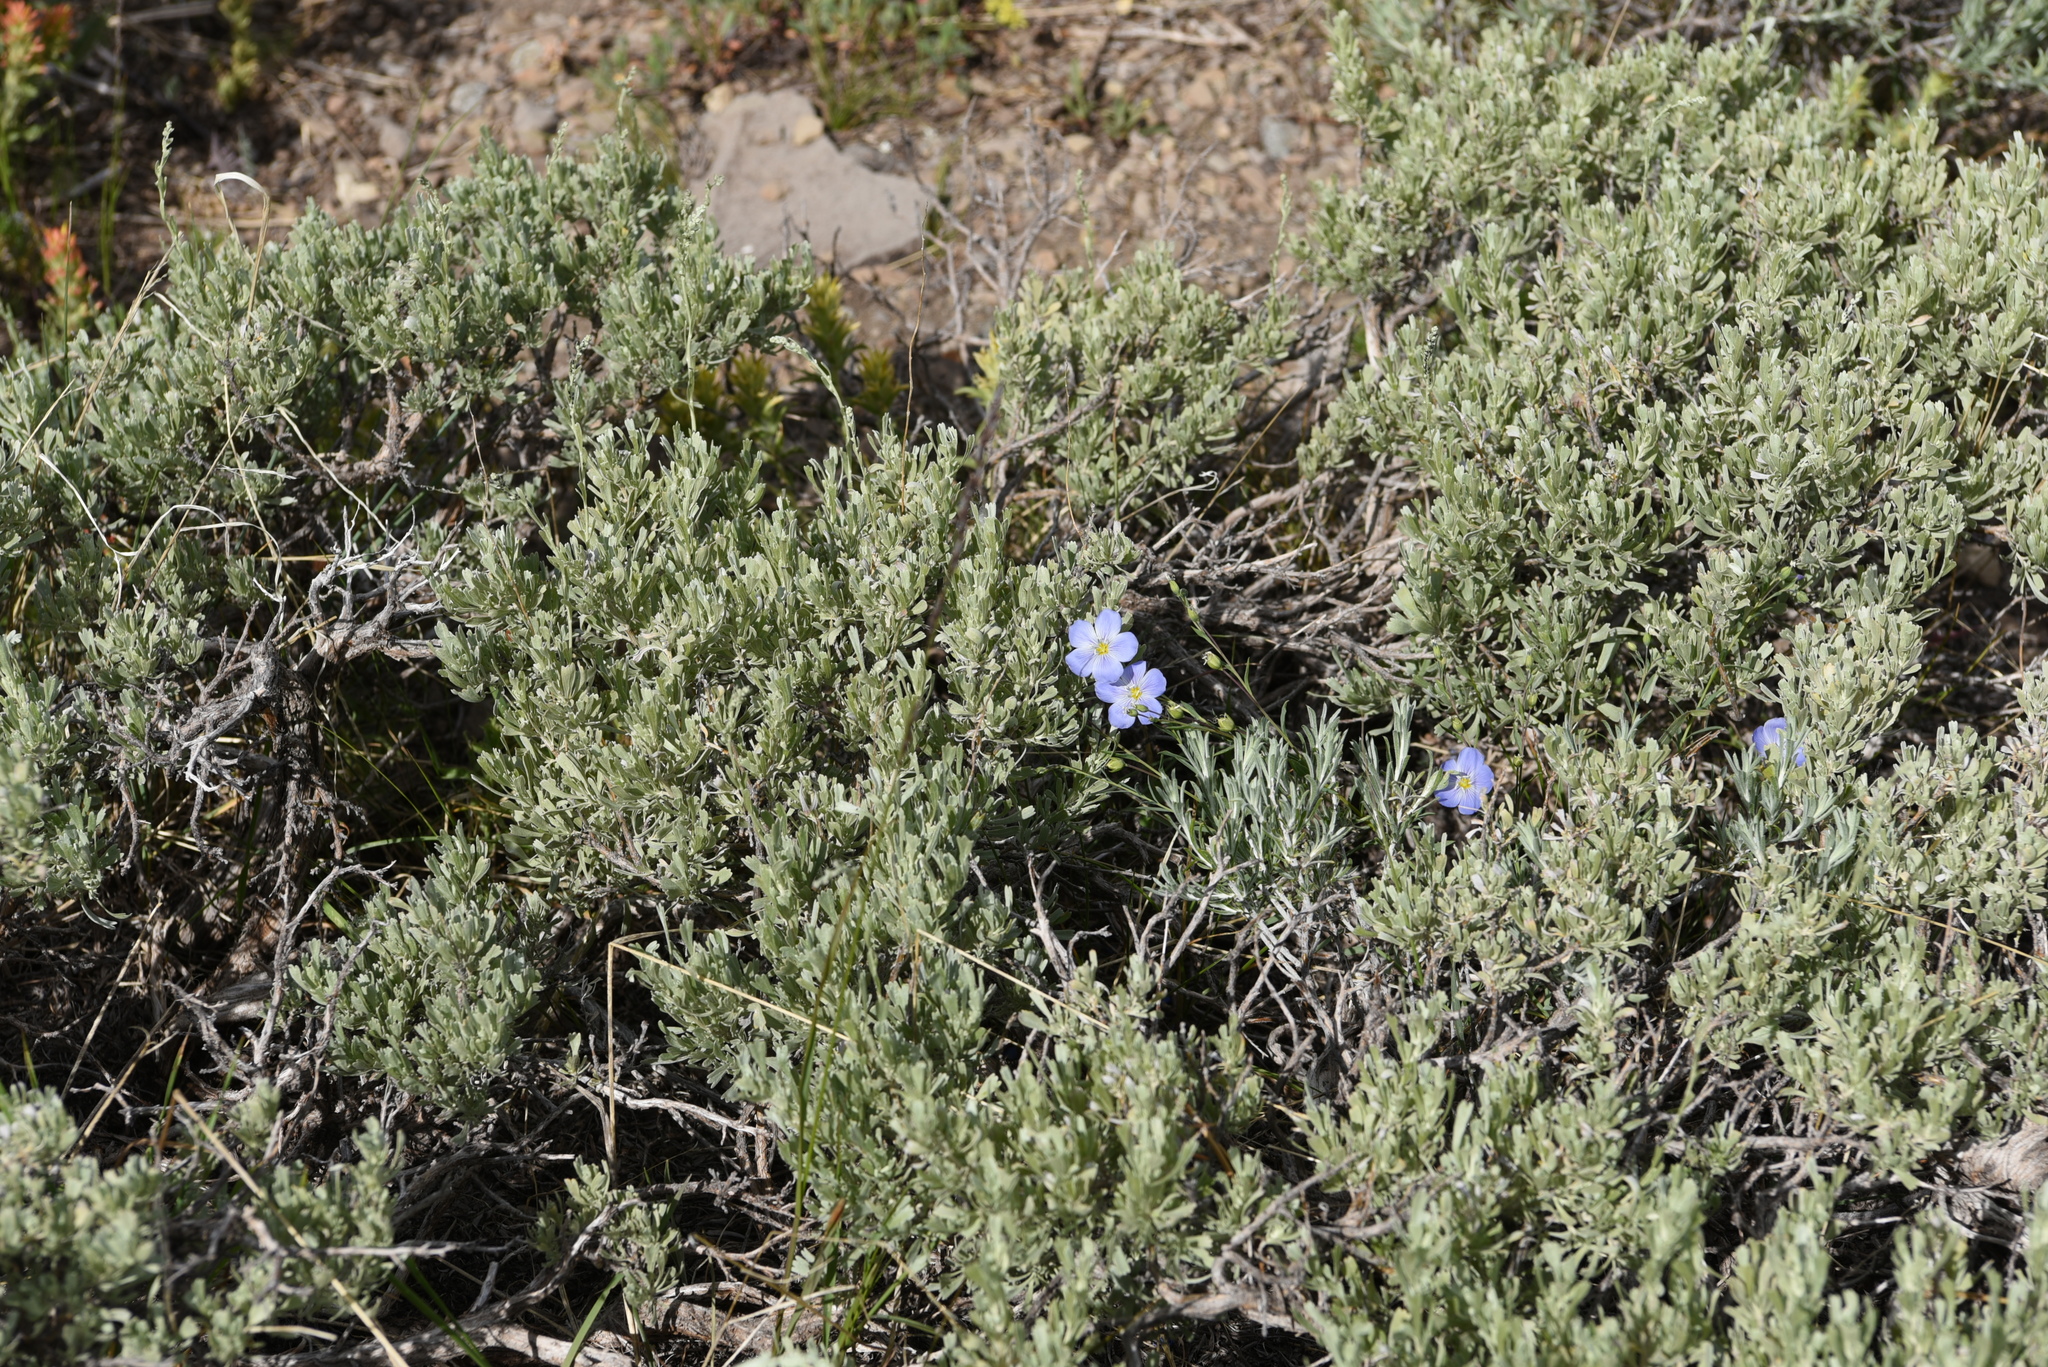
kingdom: Plantae
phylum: Tracheophyta
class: Magnoliopsida
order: Malpighiales
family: Linaceae
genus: Linum
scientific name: Linum lewisii
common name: Prairie flax
